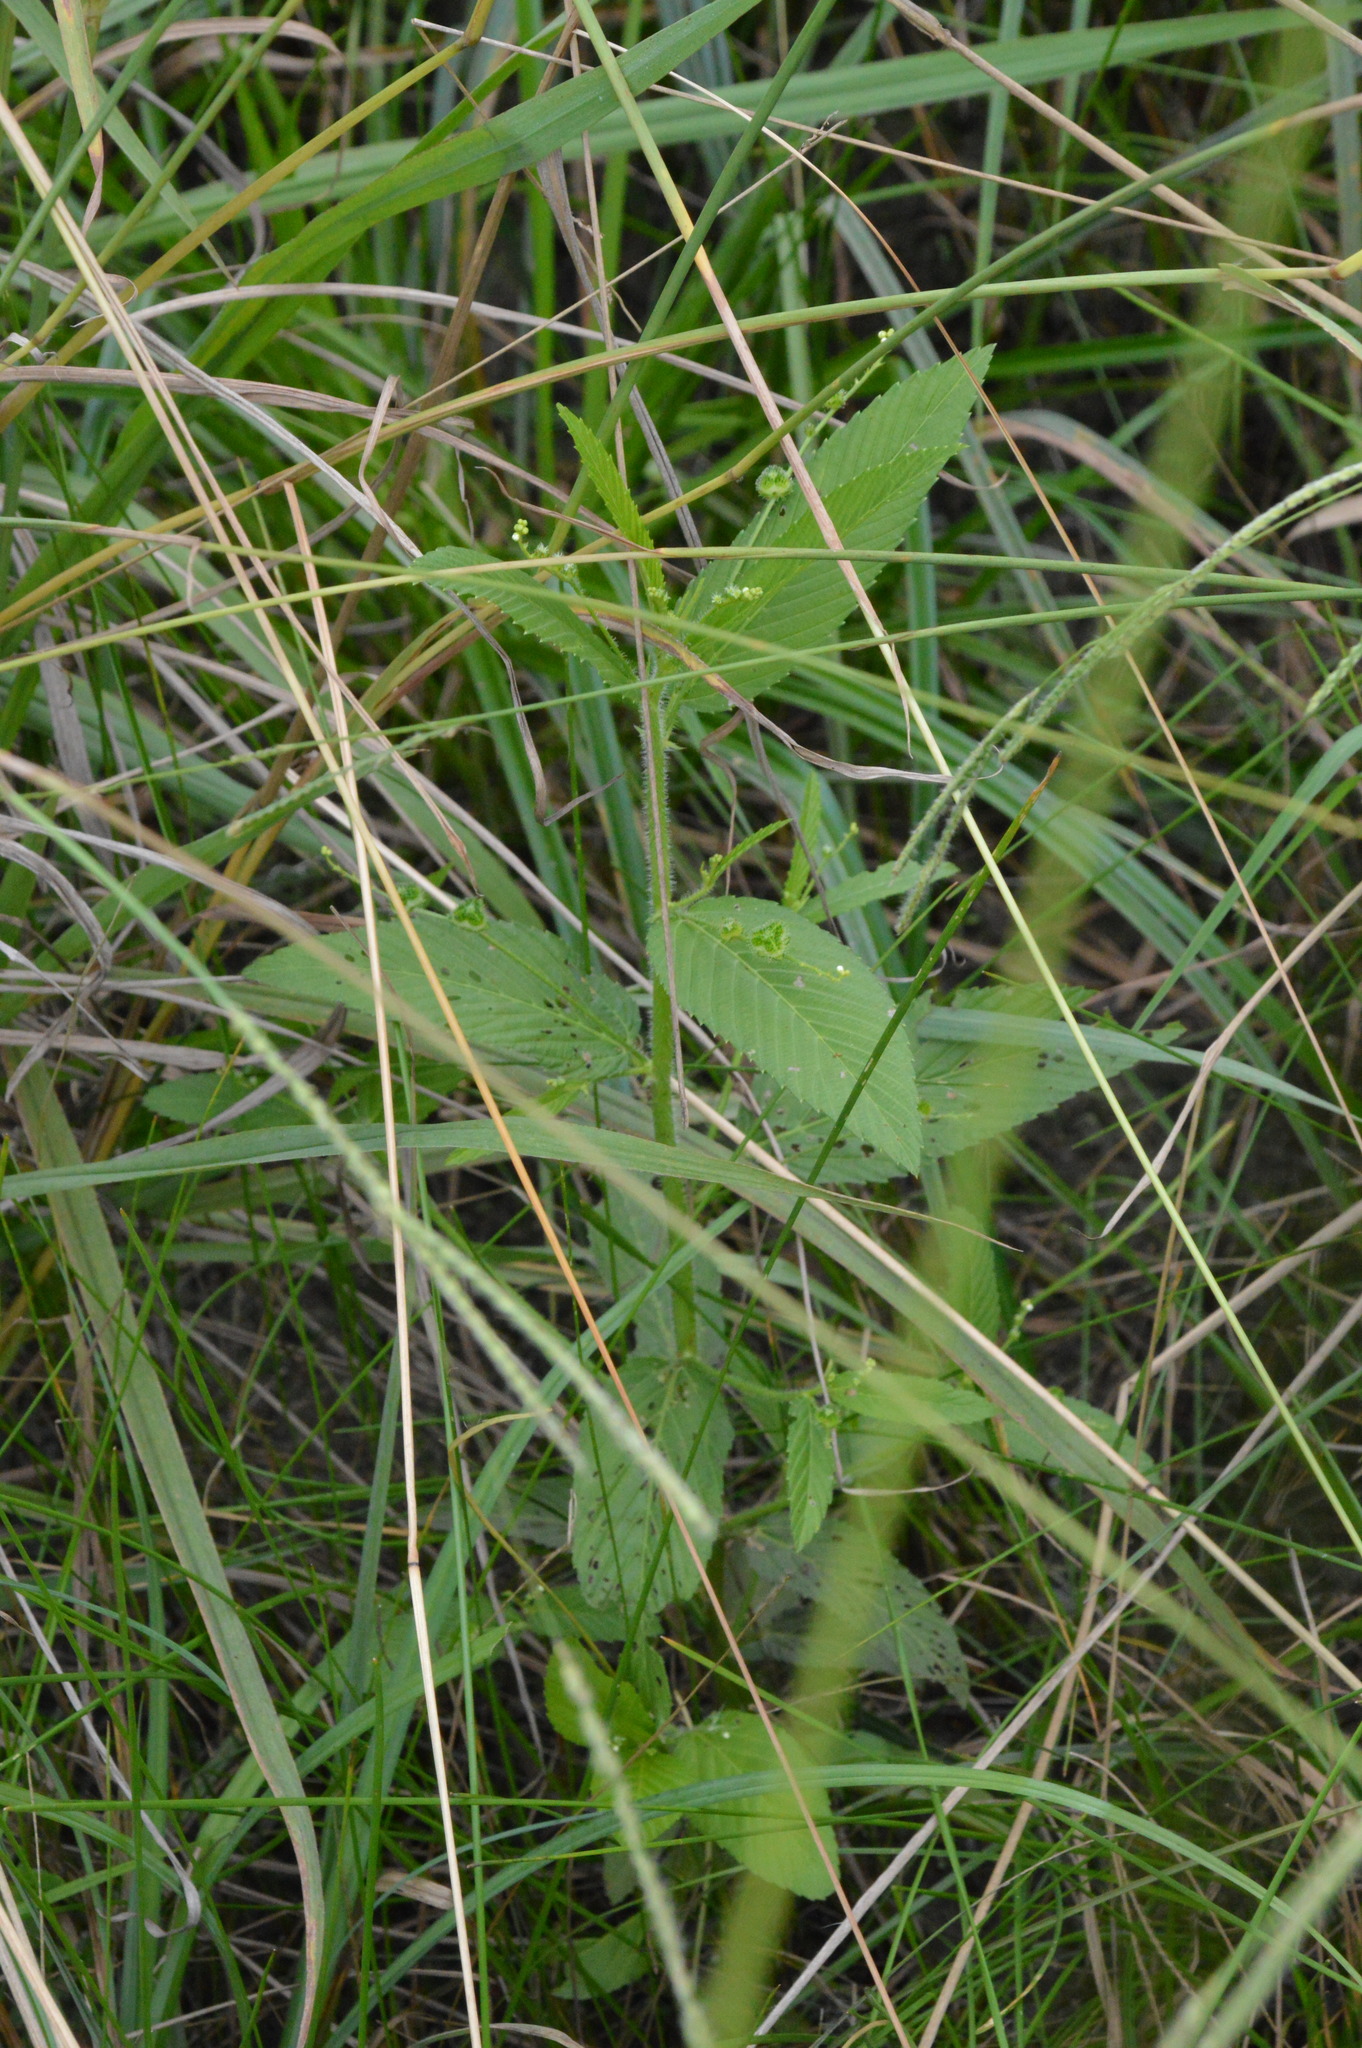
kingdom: Plantae
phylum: Tracheophyta
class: Magnoliopsida
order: Malpighiales
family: Euphorbiaceae
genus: Caperonia
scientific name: Caperonia palustris
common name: Sacatrapo
